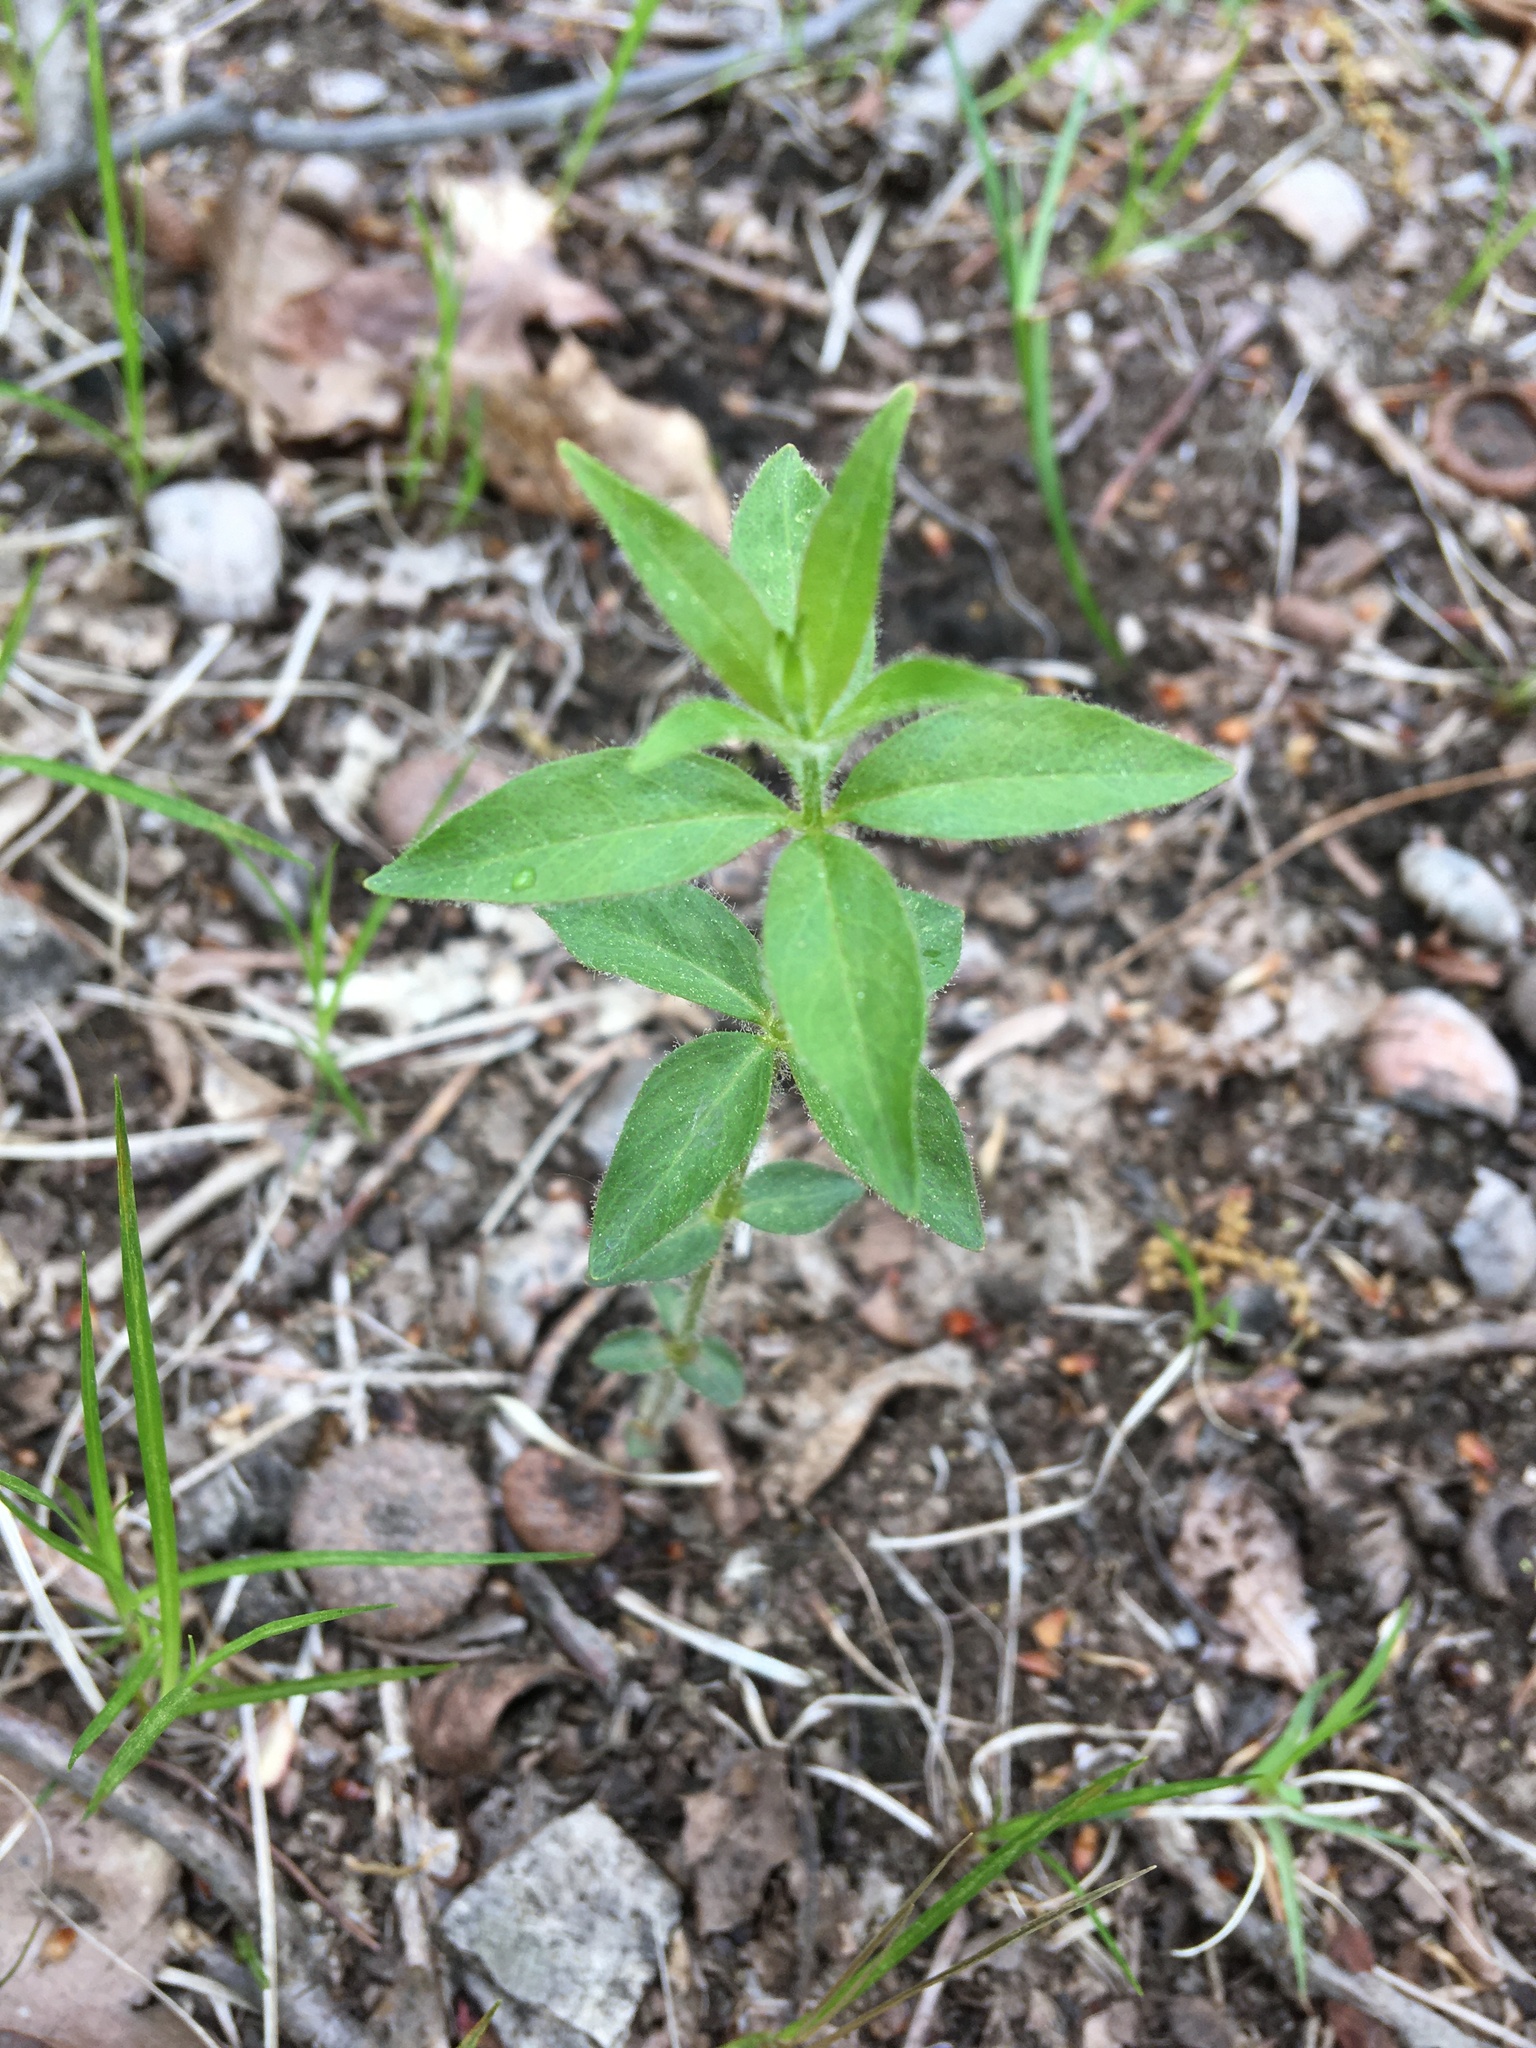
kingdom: Plantae
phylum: Tracheophyta
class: Magnoliopsida
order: Ericales
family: Primulaceae
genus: Lysimachia
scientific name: Lysimachia quadrifolia
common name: Whorled loosestrife
